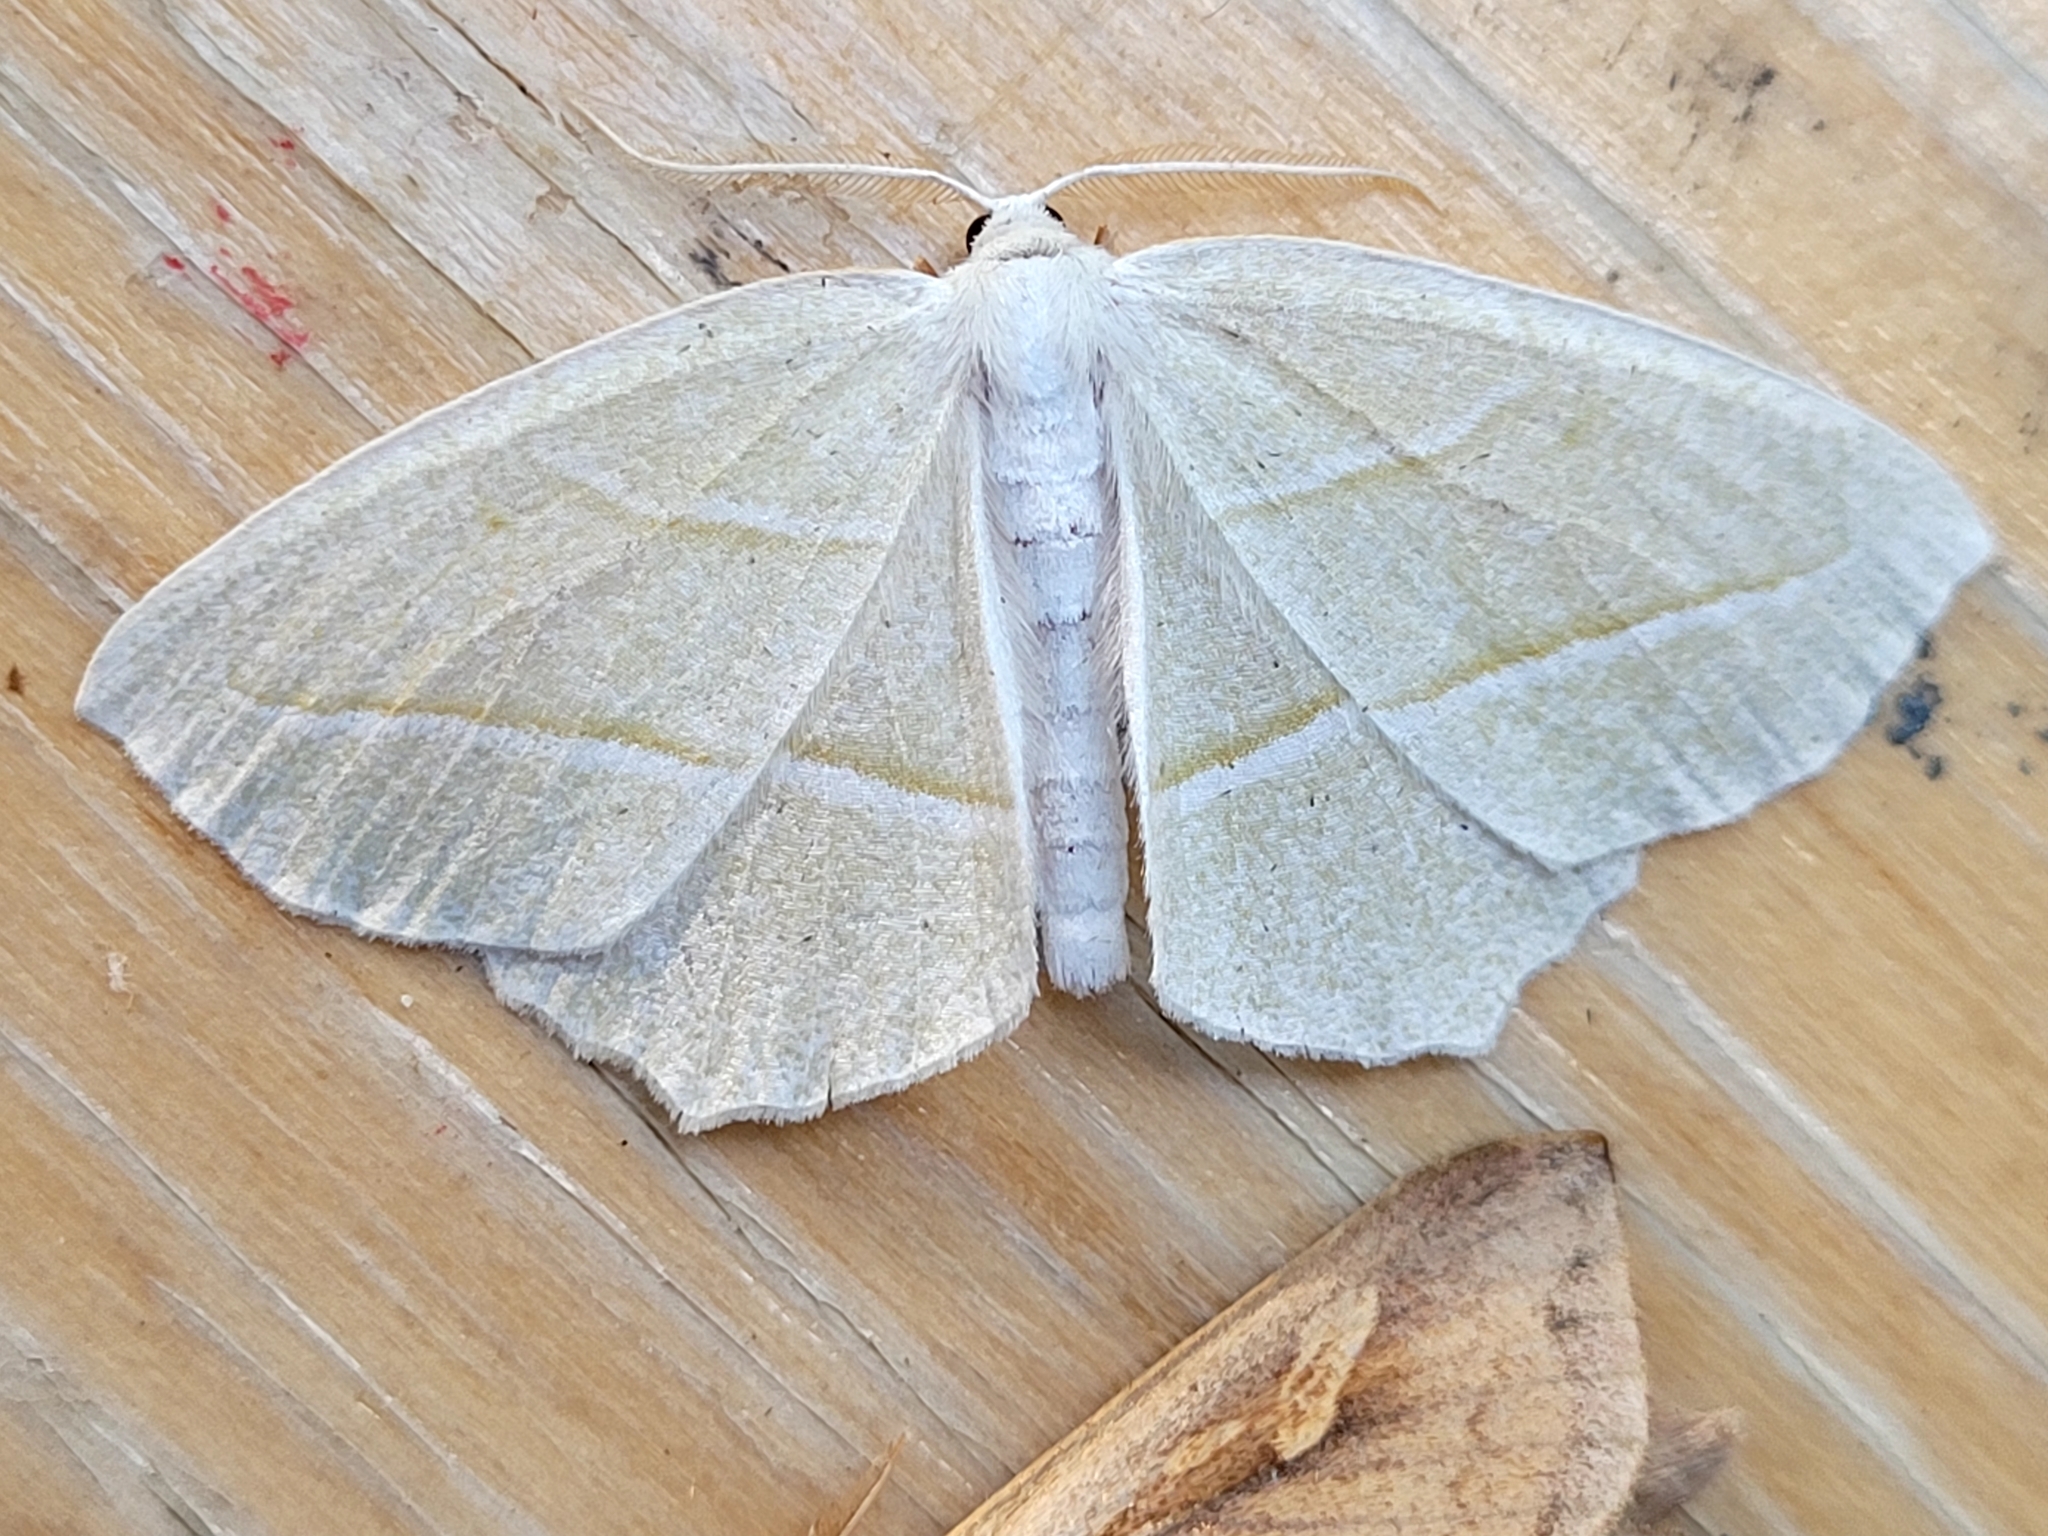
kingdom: Animalia
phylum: Arthropoda
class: Insecta
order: Lepidoptera
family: Geometridae
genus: Campaea
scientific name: Campaea perlata
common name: Fringed looper
